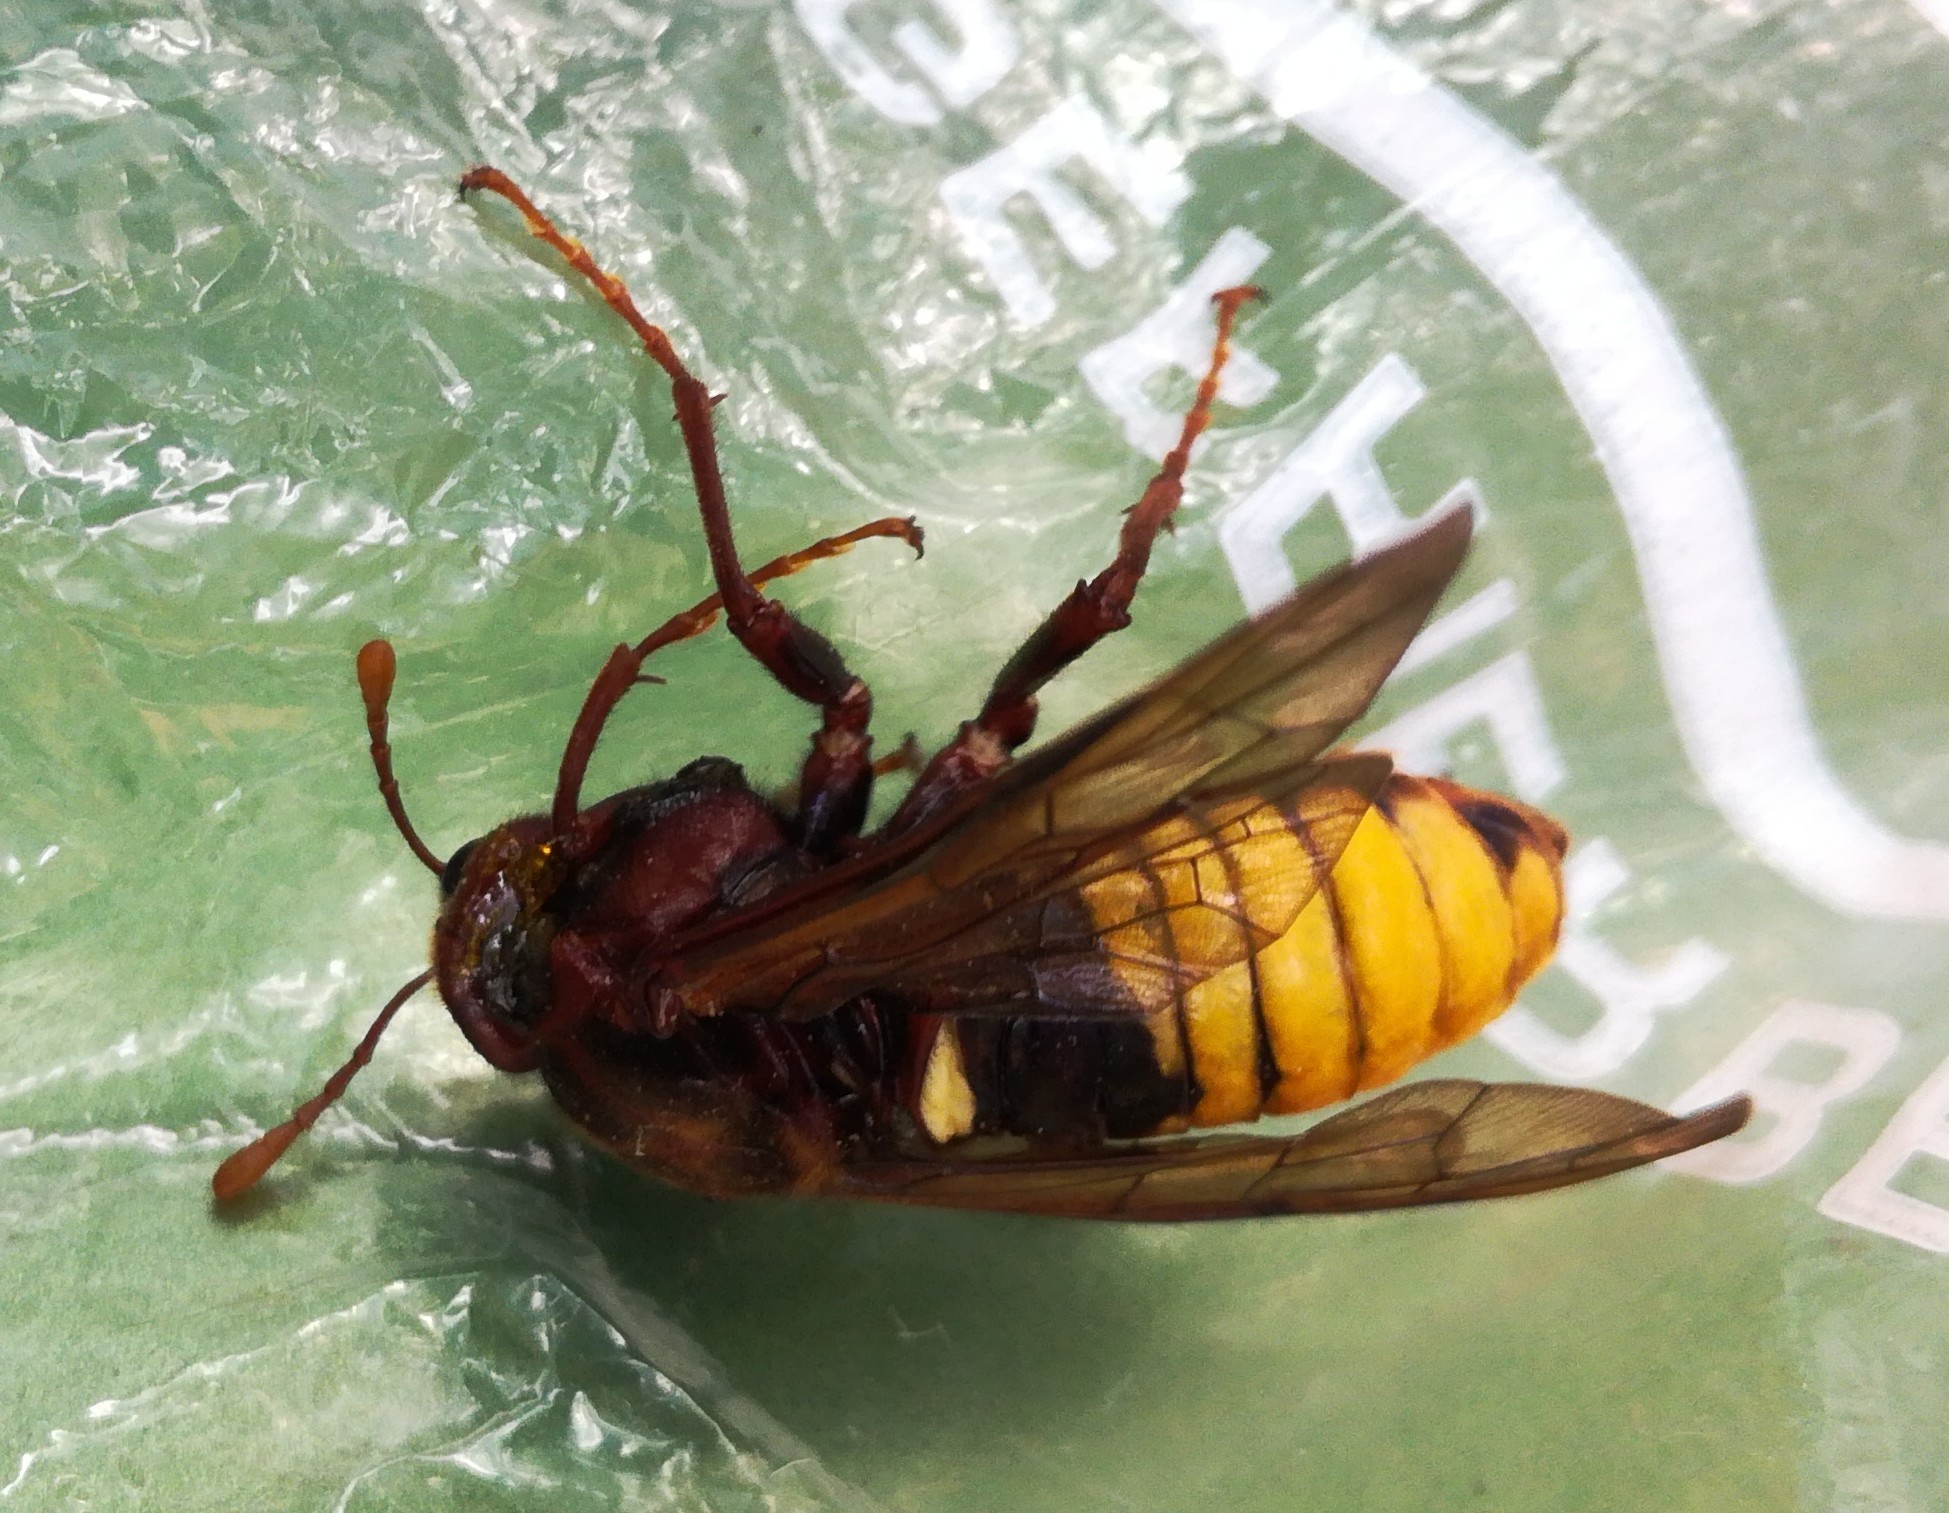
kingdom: Animalia
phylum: Arthropoda
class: Insecta
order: Hymenoptera
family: Cimbicidae
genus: Cimbex
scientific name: Cimbex connatus
